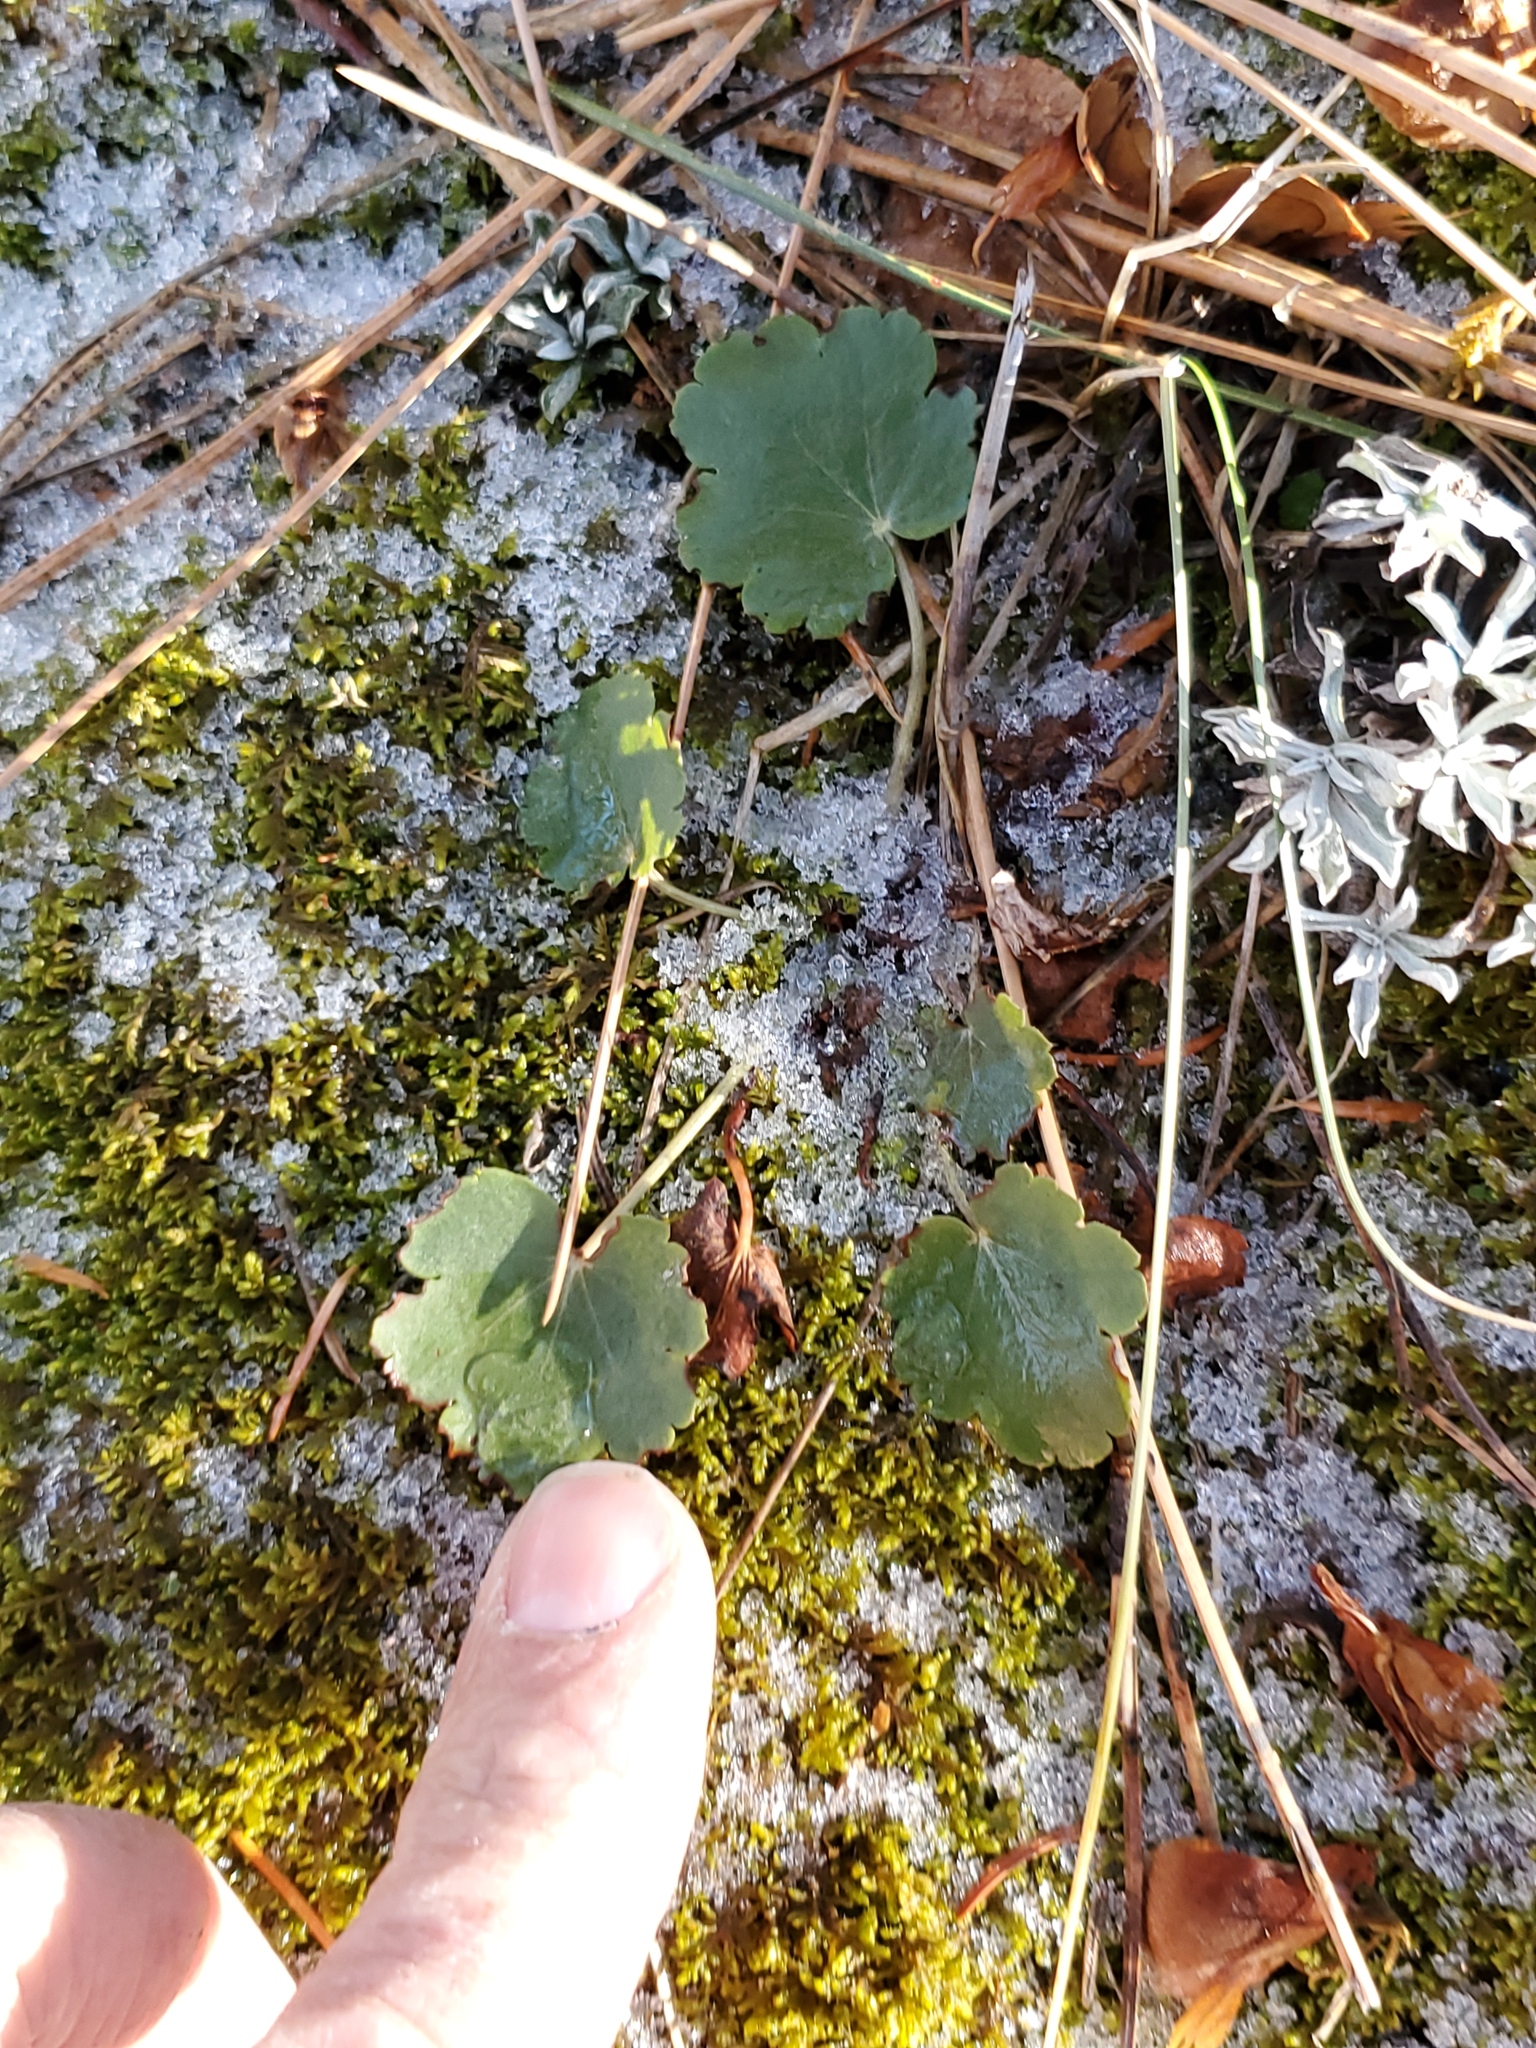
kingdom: Plantae
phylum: Tracheophyta
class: Magnoliopsida
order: Saxifragales
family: Saxifragaceae
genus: Heuchera
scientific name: Heuchera cylindrica
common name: Mat alumroot
